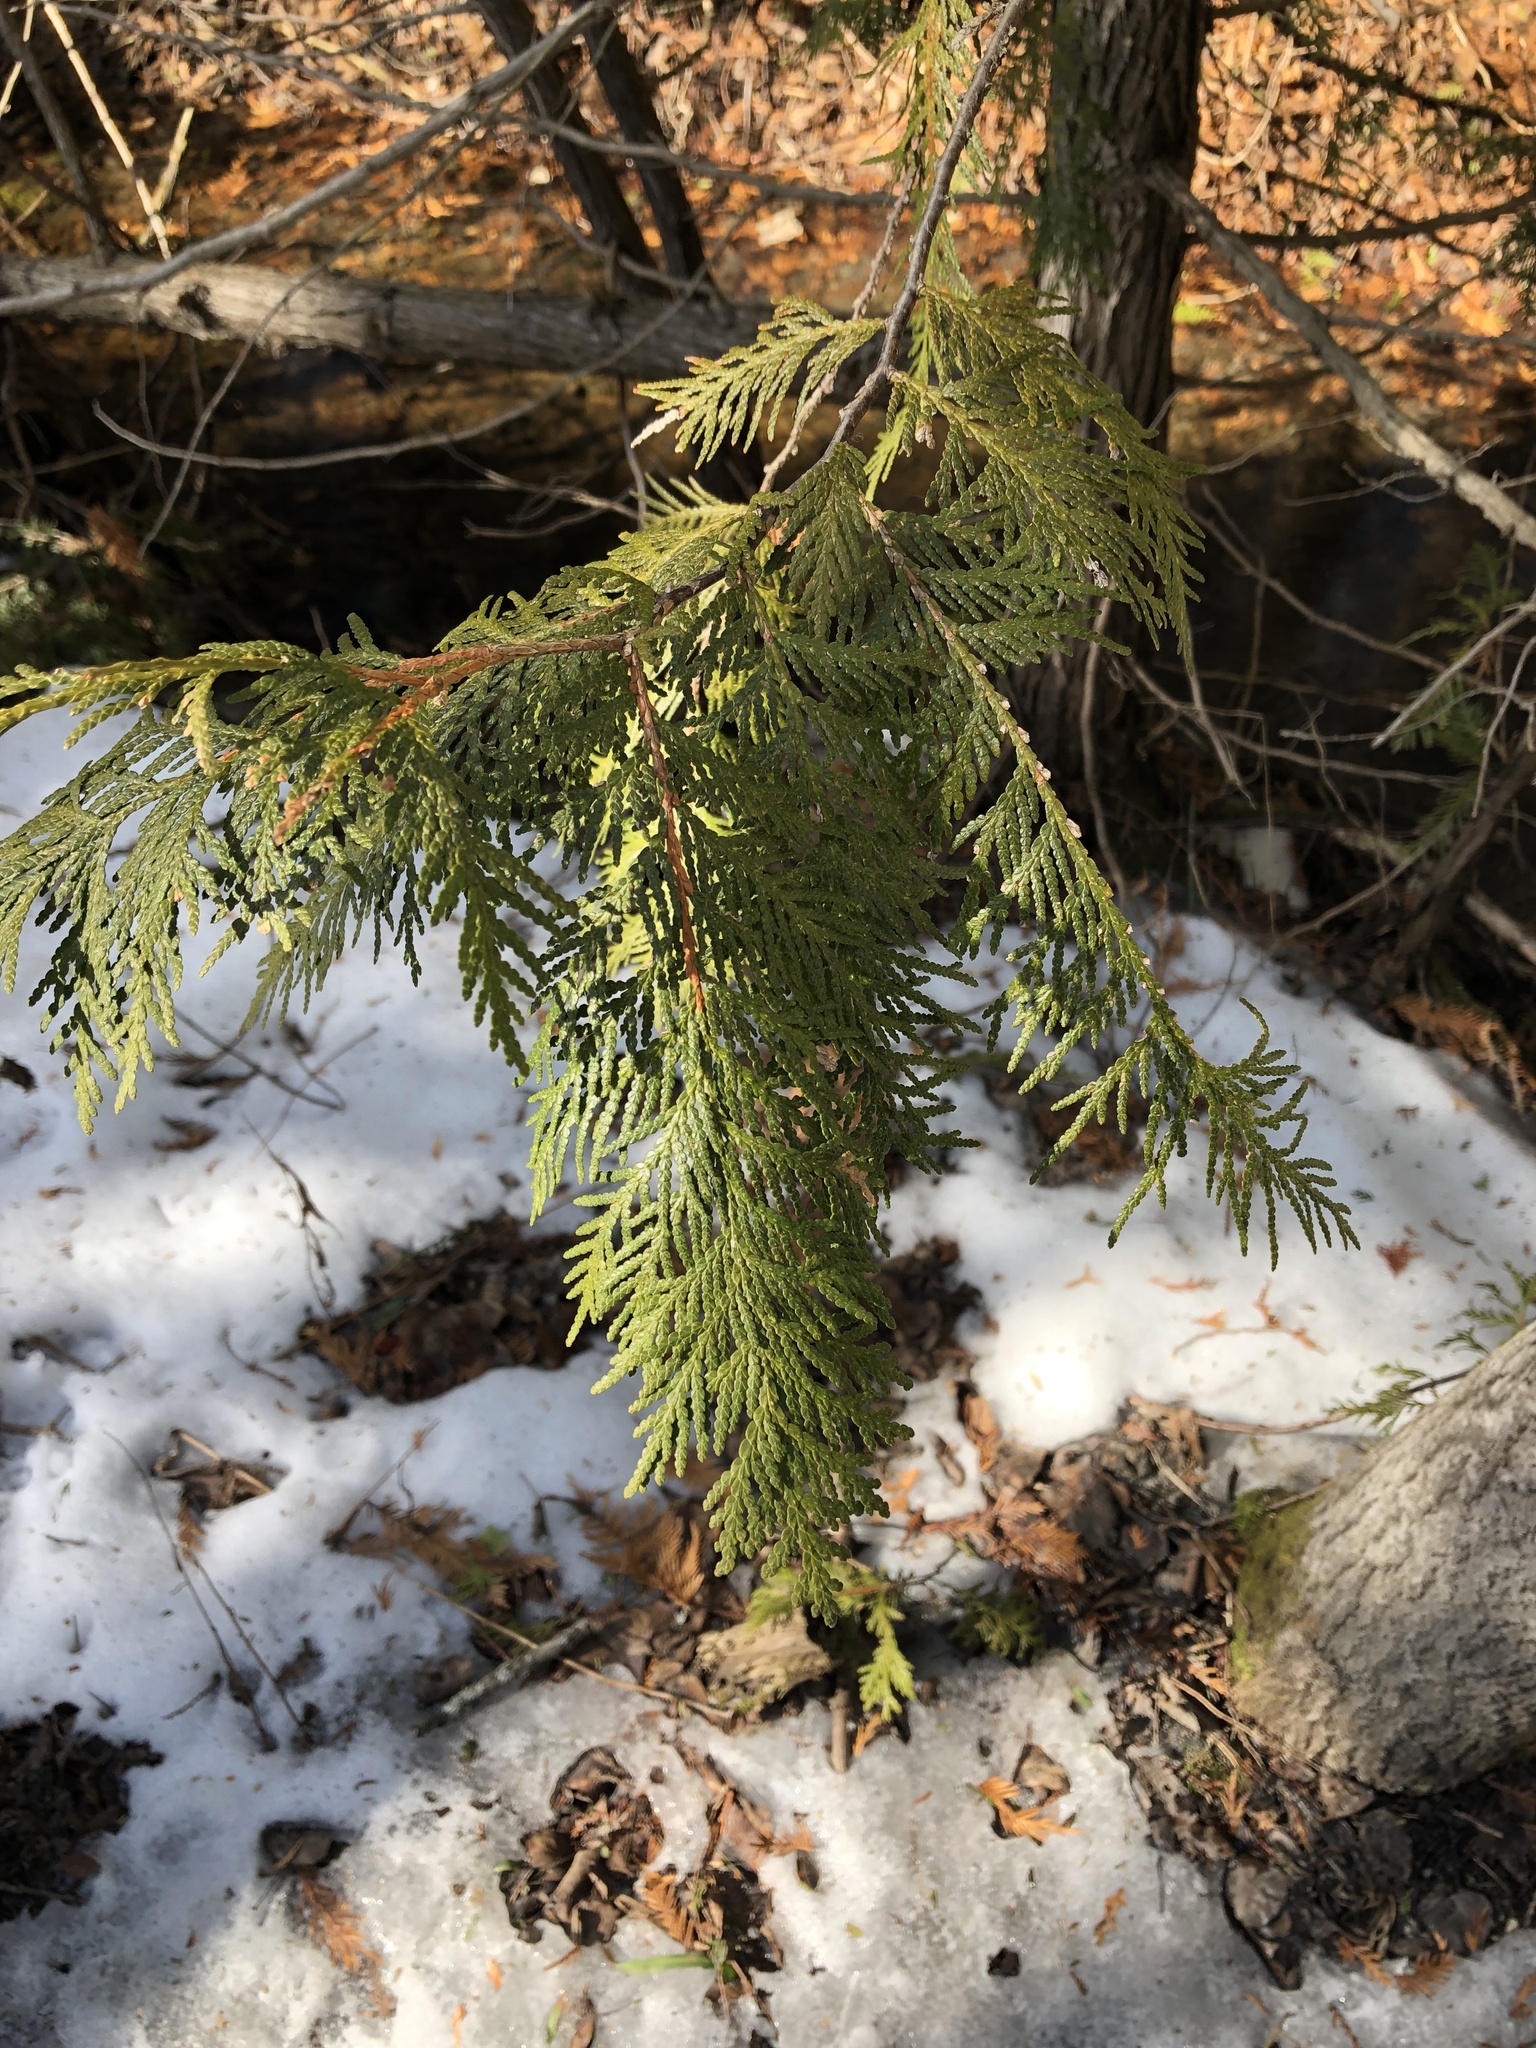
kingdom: Plantae
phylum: Tracheophyta
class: Pinopsida
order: Pinales
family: Cupressaceae
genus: Thuja
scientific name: Thuja occidentalis
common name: Northern white-cedar
